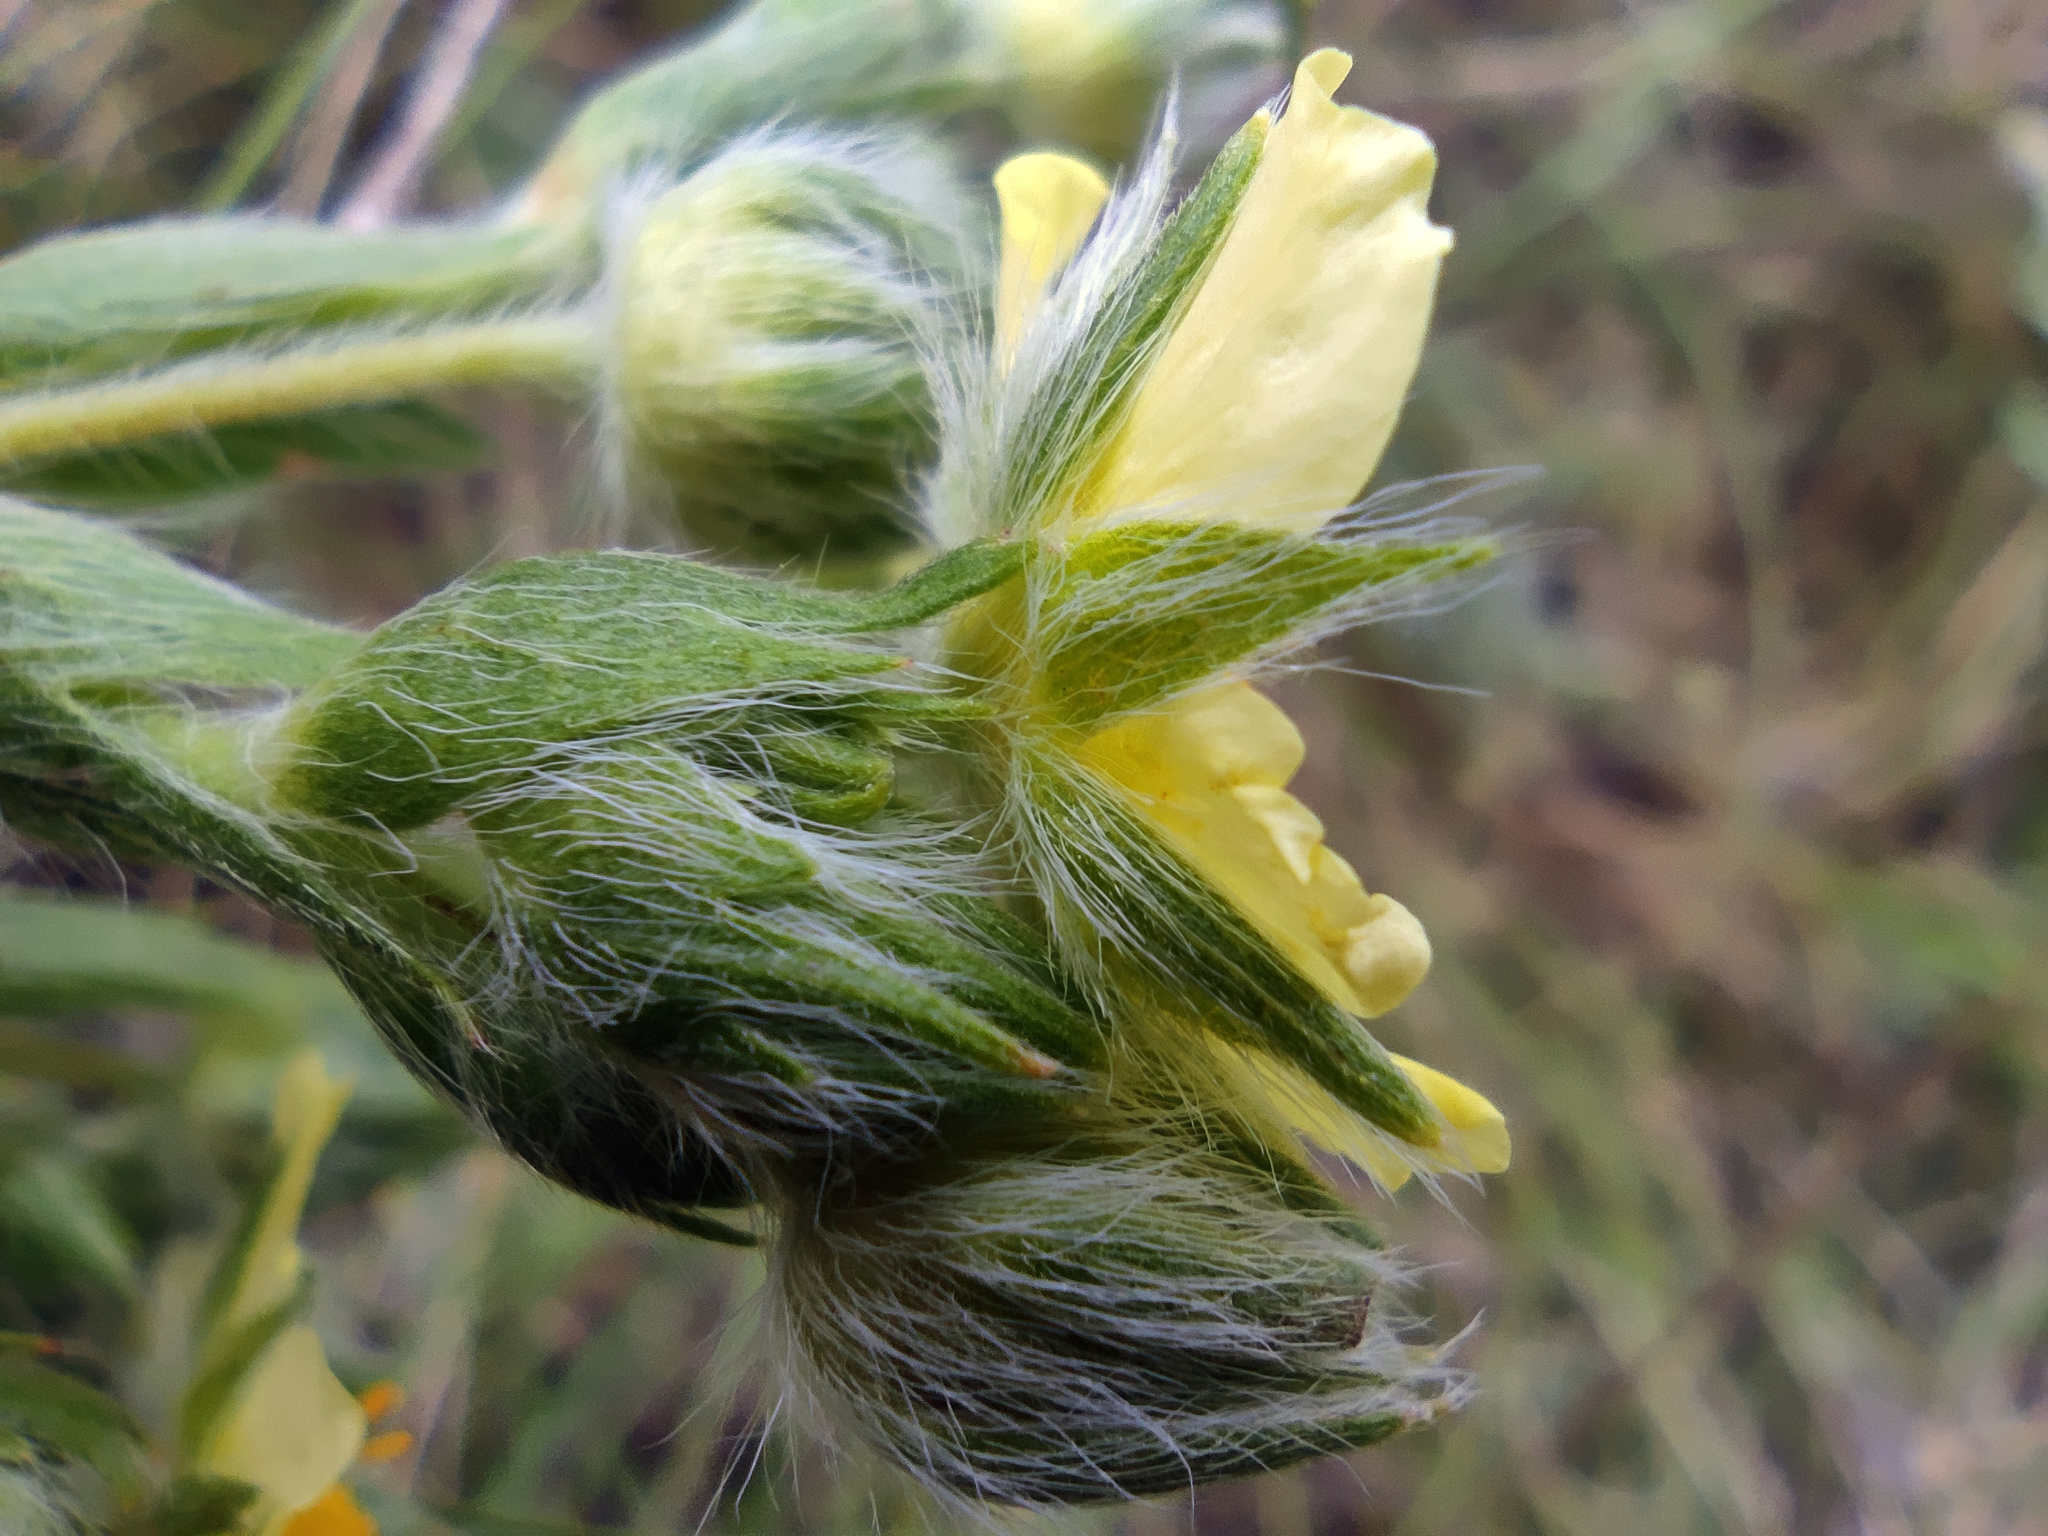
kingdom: Plantae
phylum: Tracheophyta
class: Magnoliopsida
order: Rosales
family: Rosaceae
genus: Potentilla
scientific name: Potentilla recta
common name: Sulphur cinquefoil
